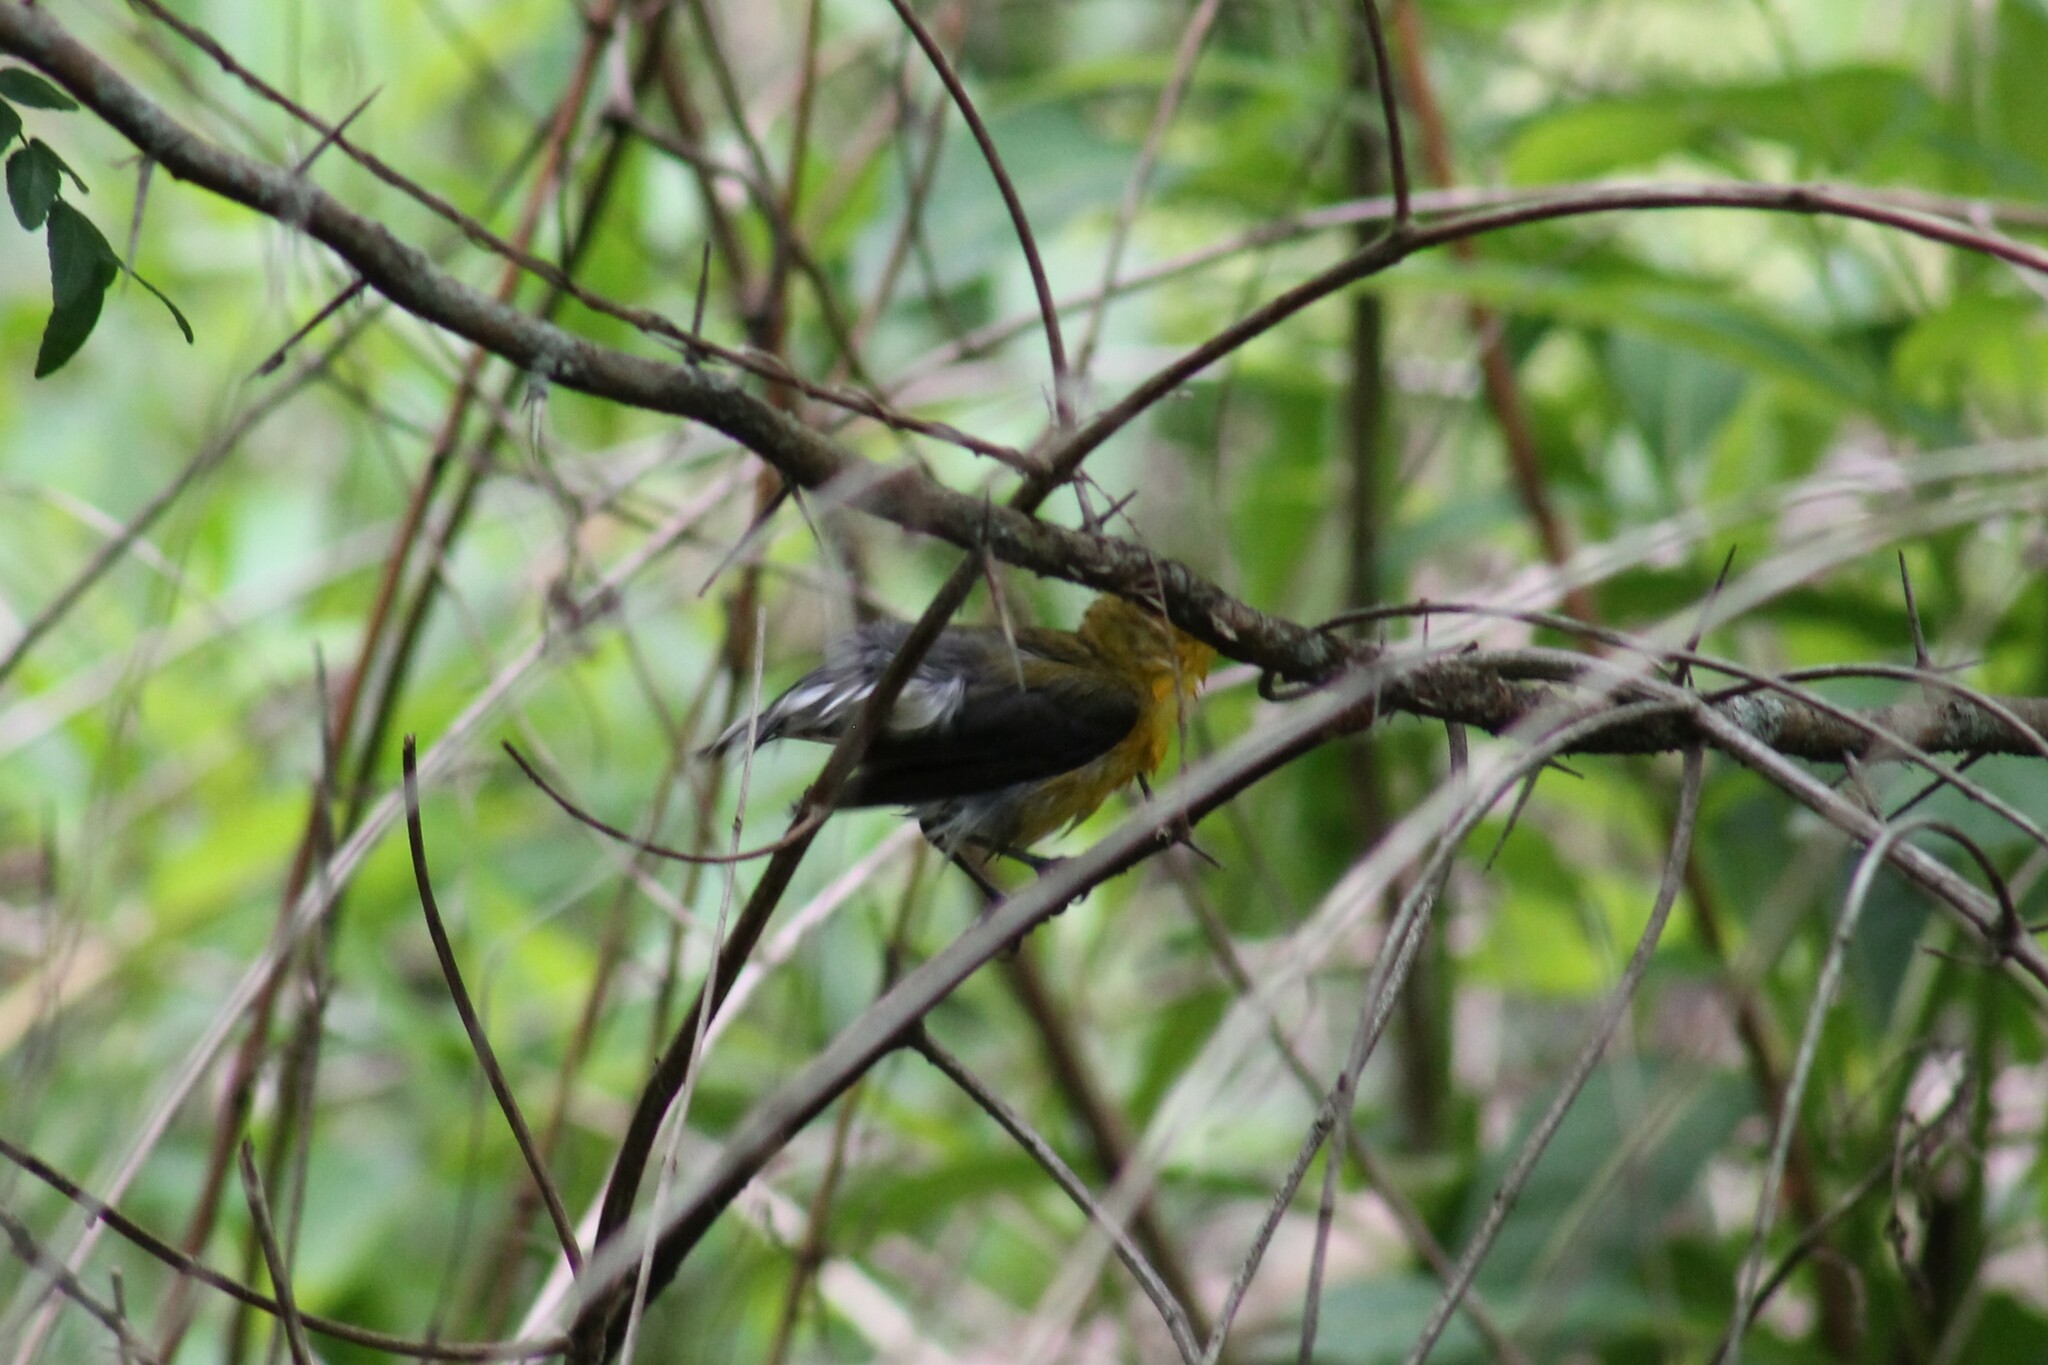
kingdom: Animalia
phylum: Chordata
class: Aves
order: Passeriformes
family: Parulidae
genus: Protonotaria
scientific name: Protonotaria citrea
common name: Prothonotary warbler
